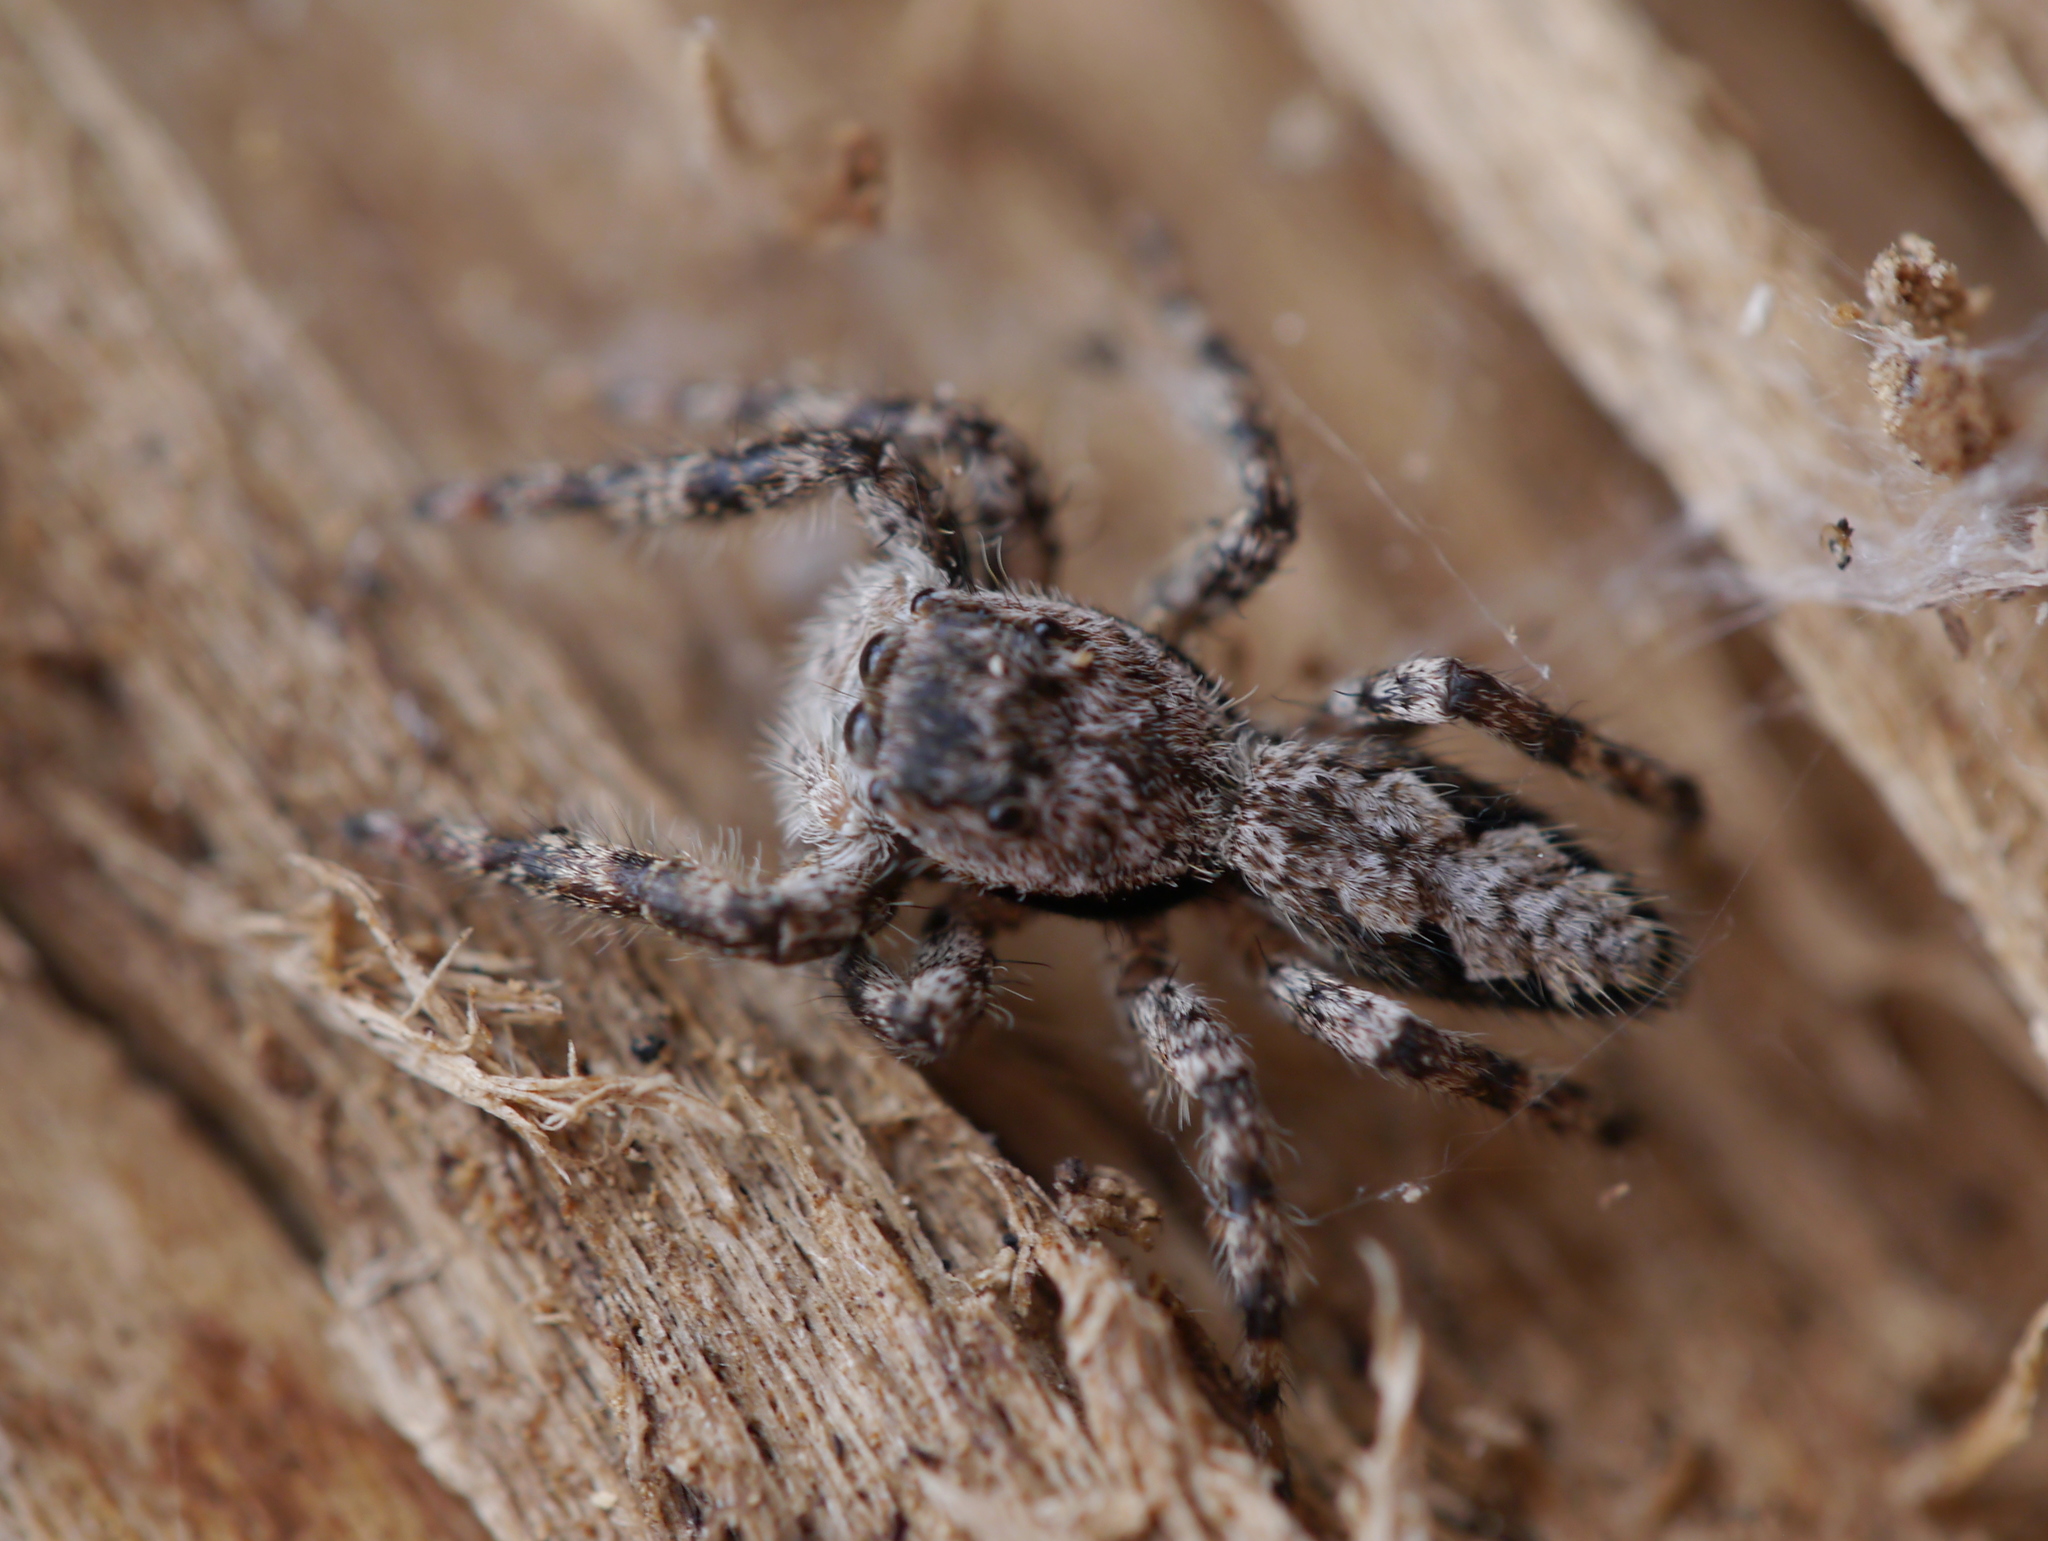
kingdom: Animalia
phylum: Arthropoda
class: Arachnida
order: Araneae
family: Salticidae
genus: Platycryptus
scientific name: Platycryptus undatus
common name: Tan jumping spider
